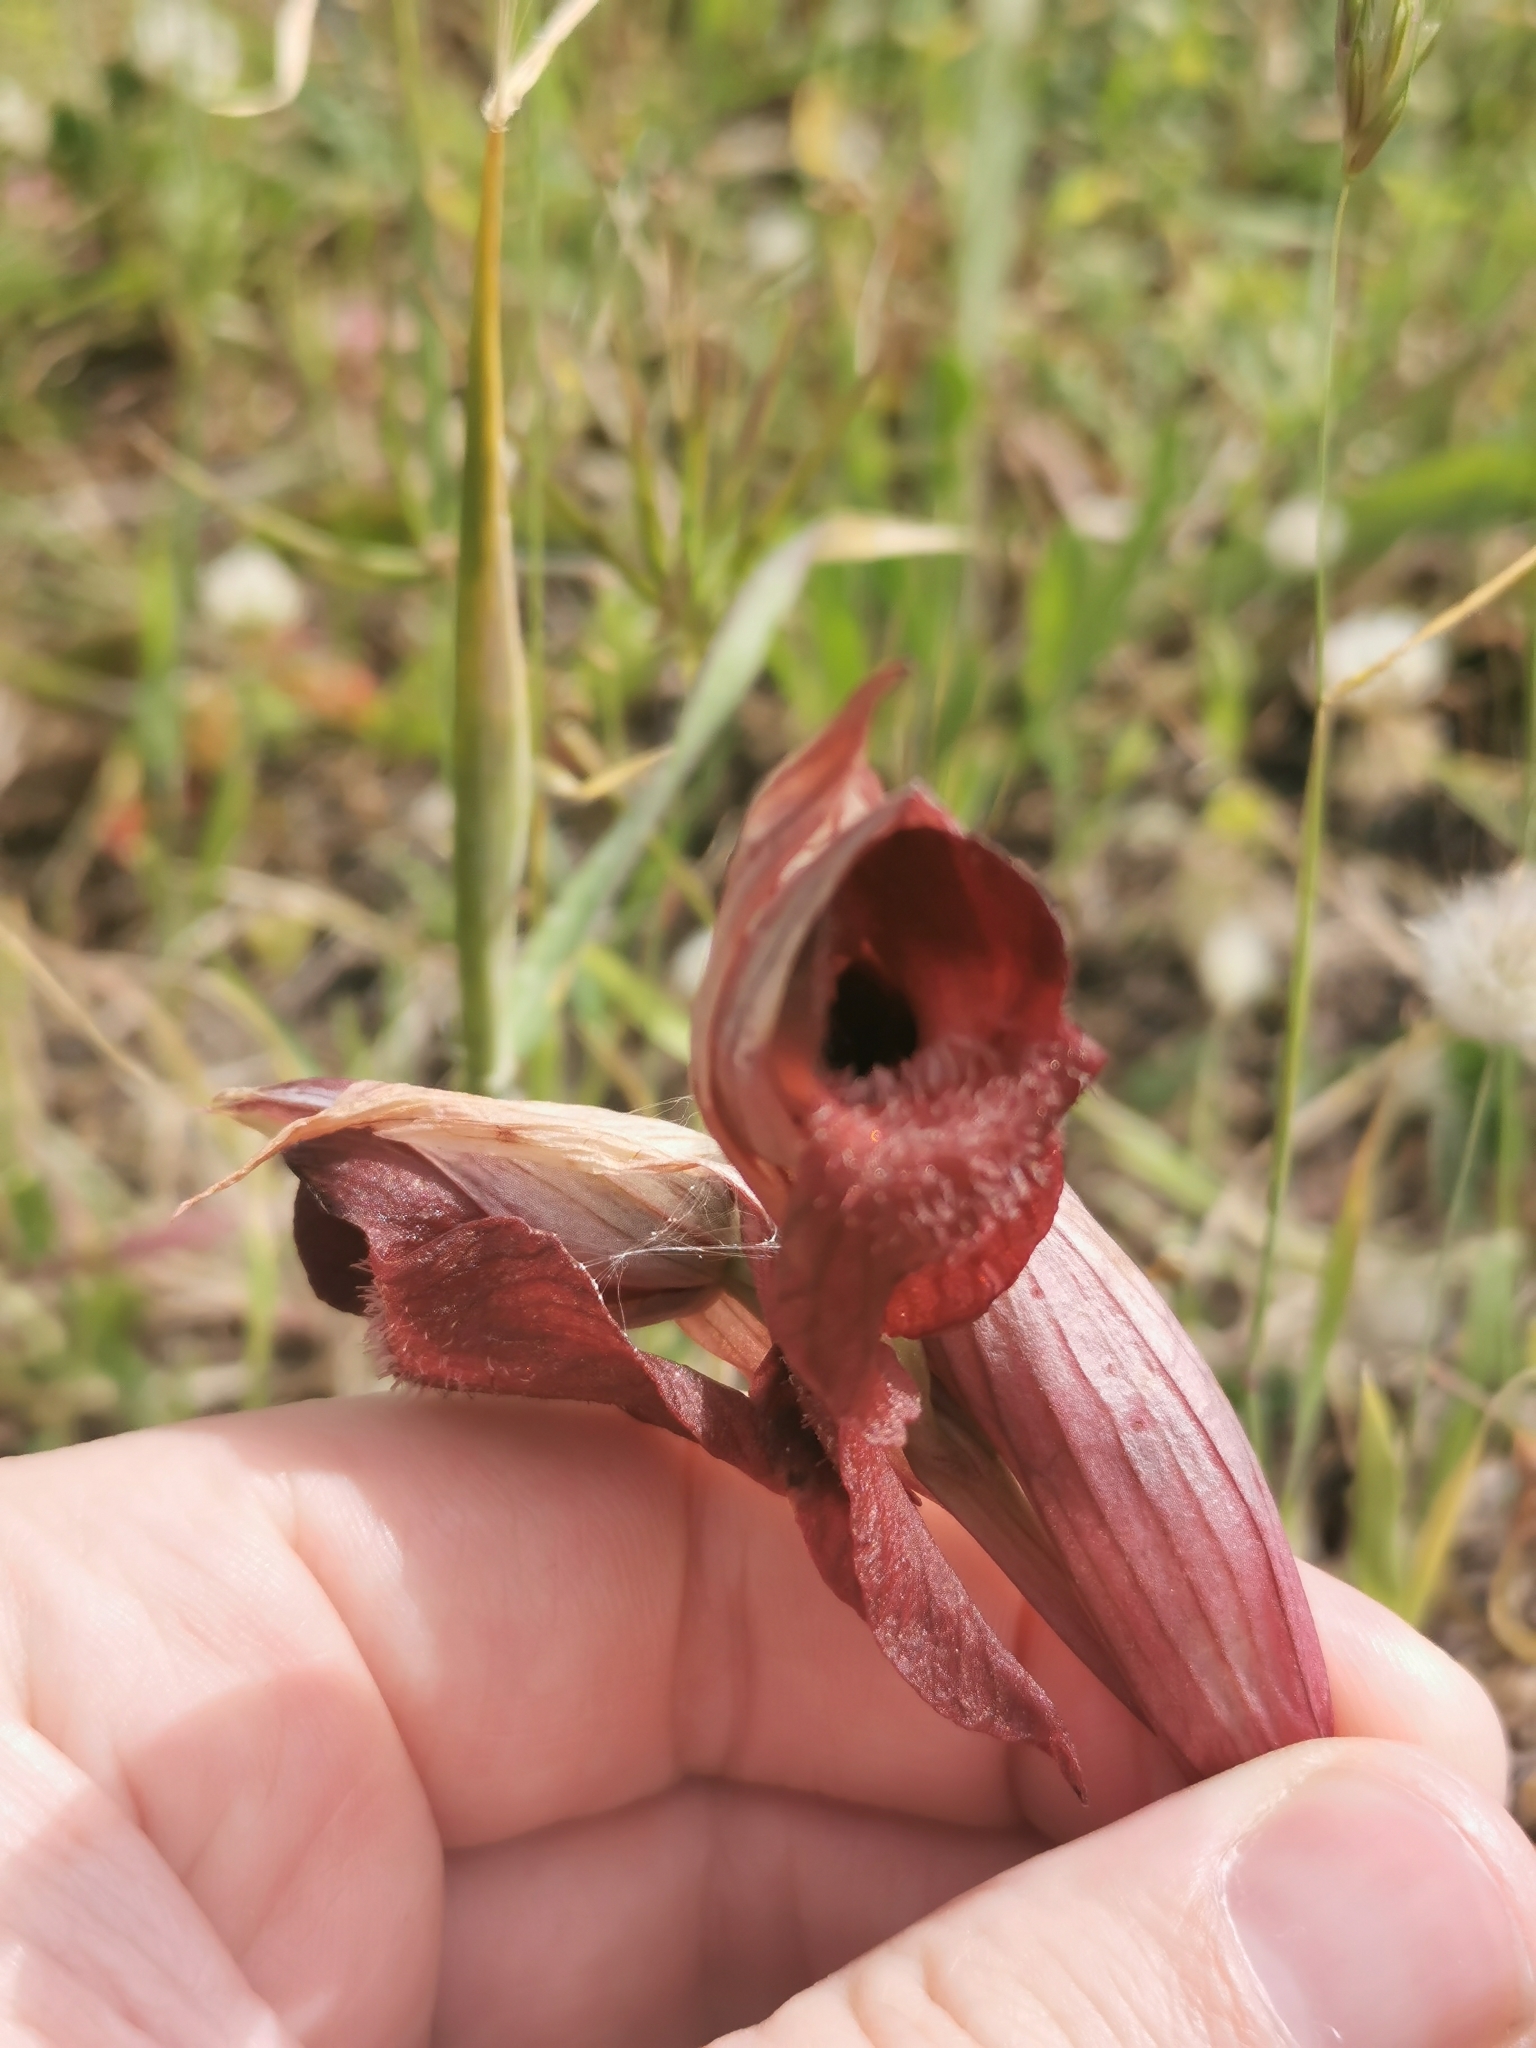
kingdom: Plantae
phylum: Tracheophyta
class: Liliopsida
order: Asparagales
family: Orchidaceae
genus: Serapias
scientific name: Serapias orientalis
